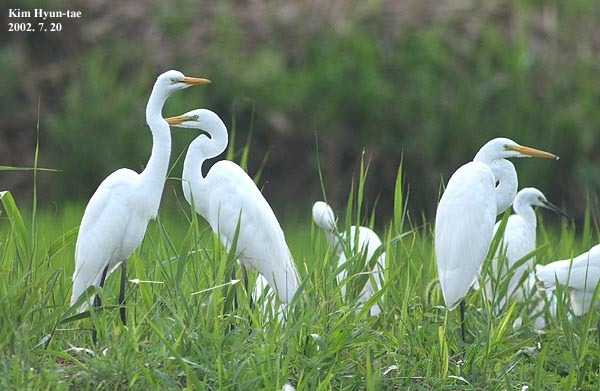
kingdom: Animalia
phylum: Chordata
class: Aves
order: Pelecaniformes
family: Ardeidae
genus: Ardea
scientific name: Ardea modesta
